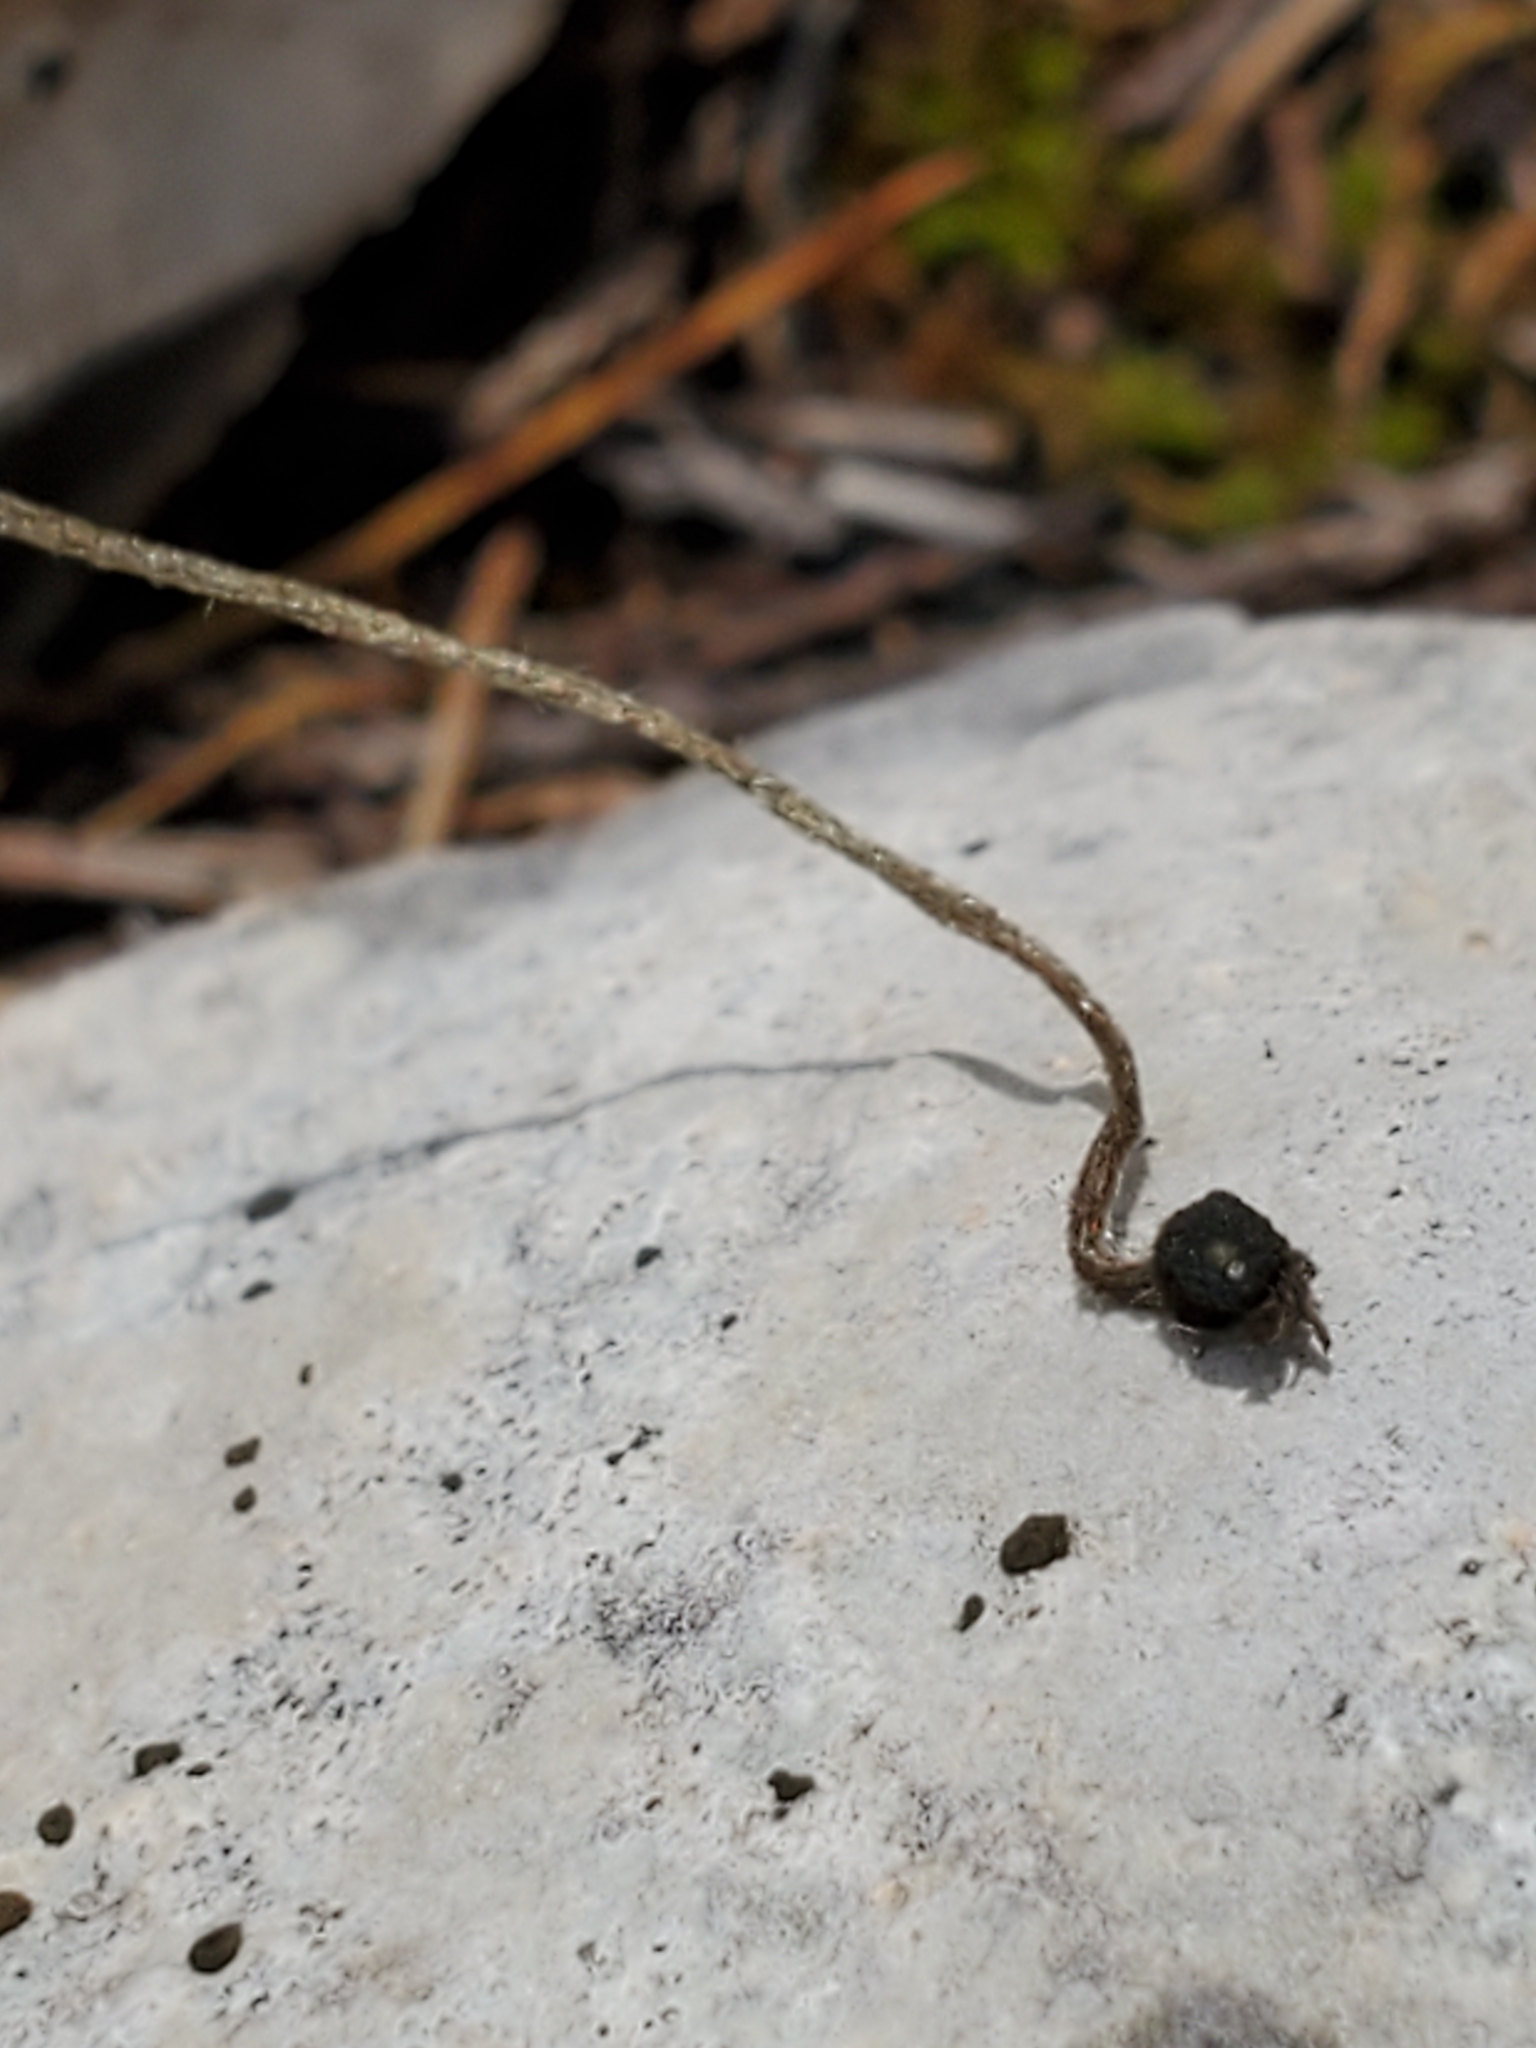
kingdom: Plantae
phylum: Tracheophyta
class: Magnoliopsida
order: Ranunculales
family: Ranunculaceae
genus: Anemone
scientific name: Anemone edwardsiana
